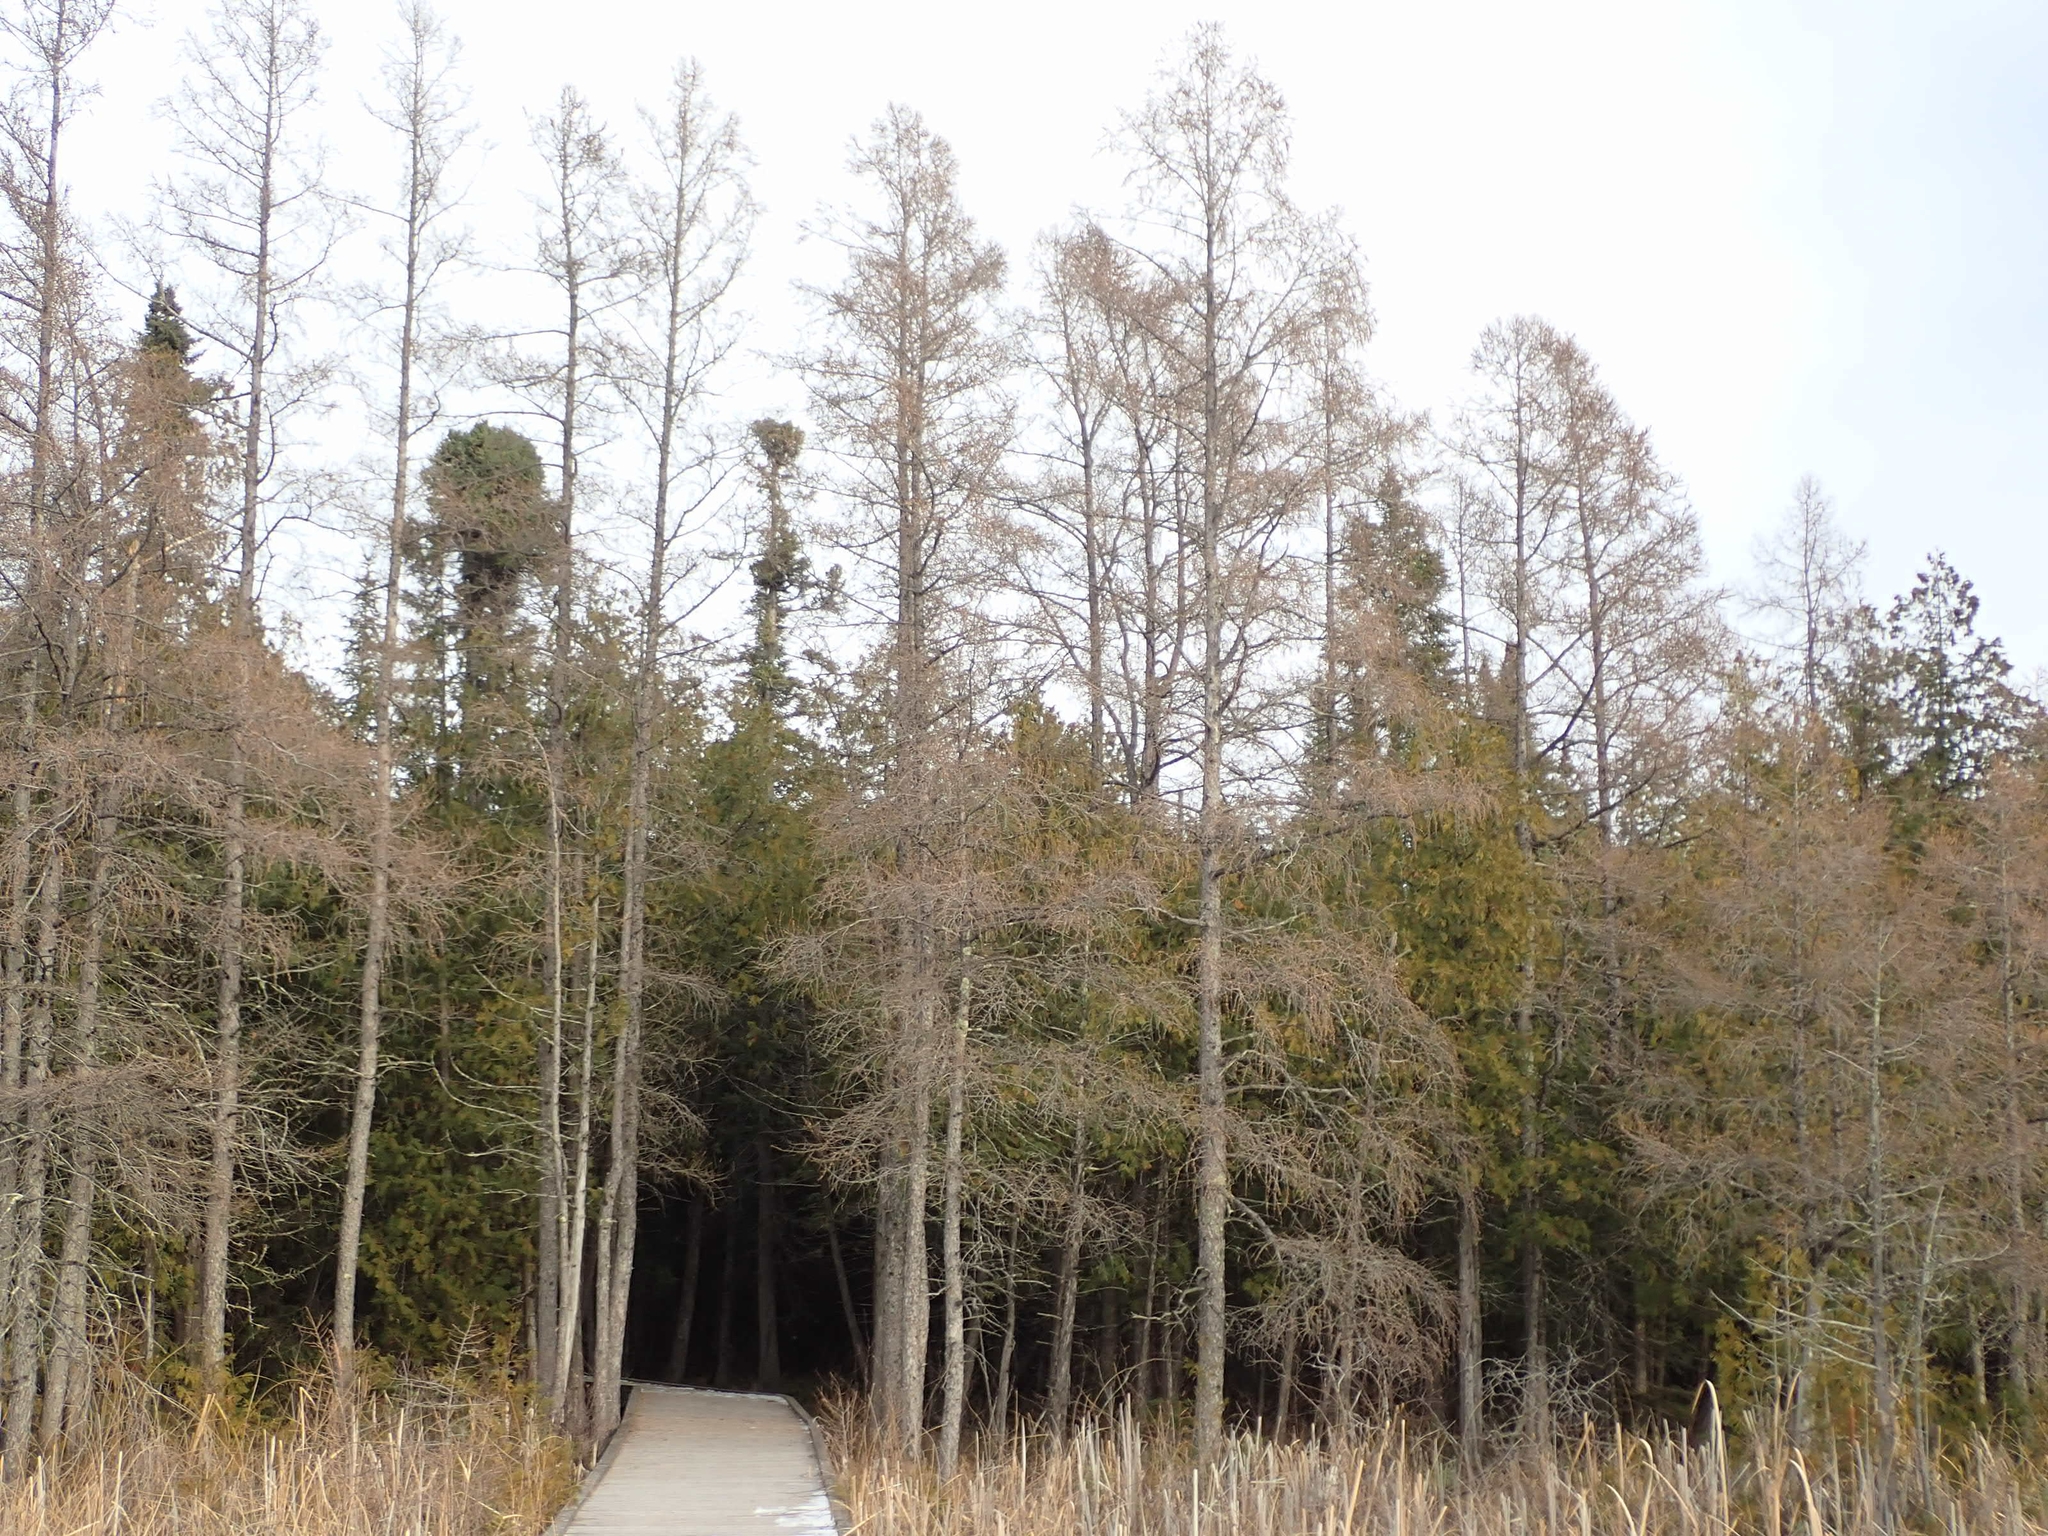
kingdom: Plantae
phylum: Tracheophyta
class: Pinopsida
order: Pinales
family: Pinaceae
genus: Larix
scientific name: Larix laricina
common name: American larch
